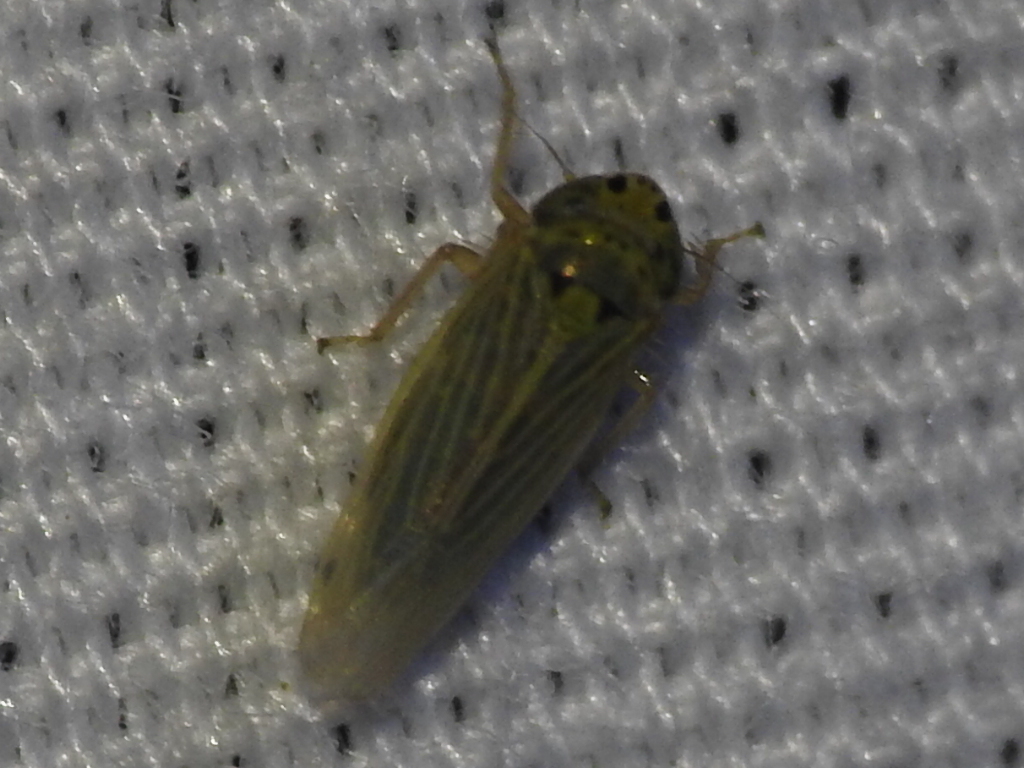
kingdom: Animalia
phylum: Arthropoda
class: Insecta
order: Hemiptera
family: Cicadellidae
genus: Graminella
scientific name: Graminella cognita
